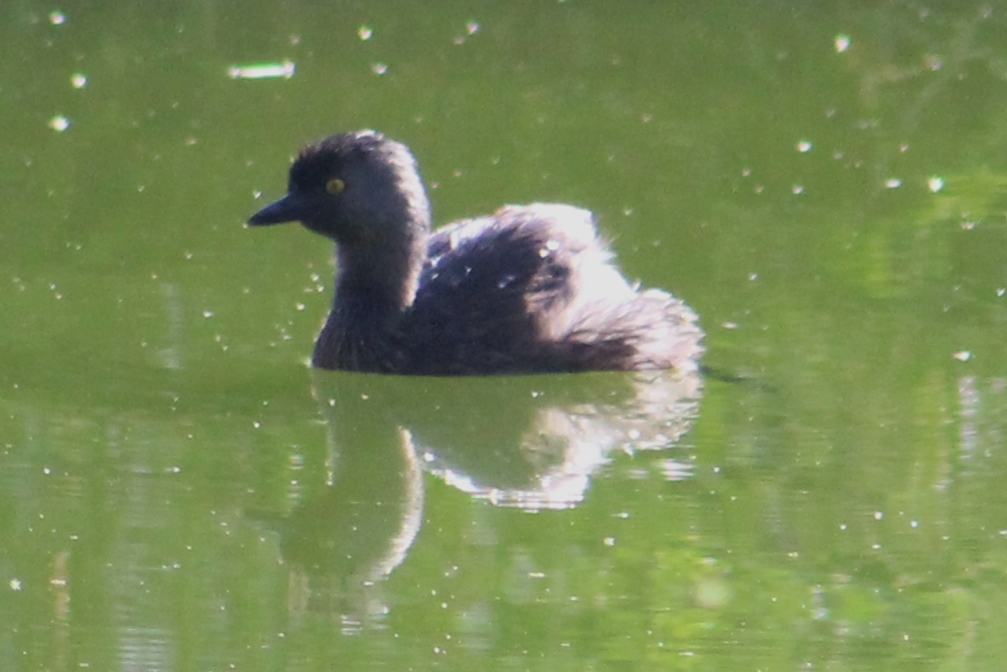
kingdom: Animalia
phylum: Chordata
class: Aves
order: Podicipediformes
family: Podicipedidae
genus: Tachybaptus
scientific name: Tachybaptus dominicus
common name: Least grebe
